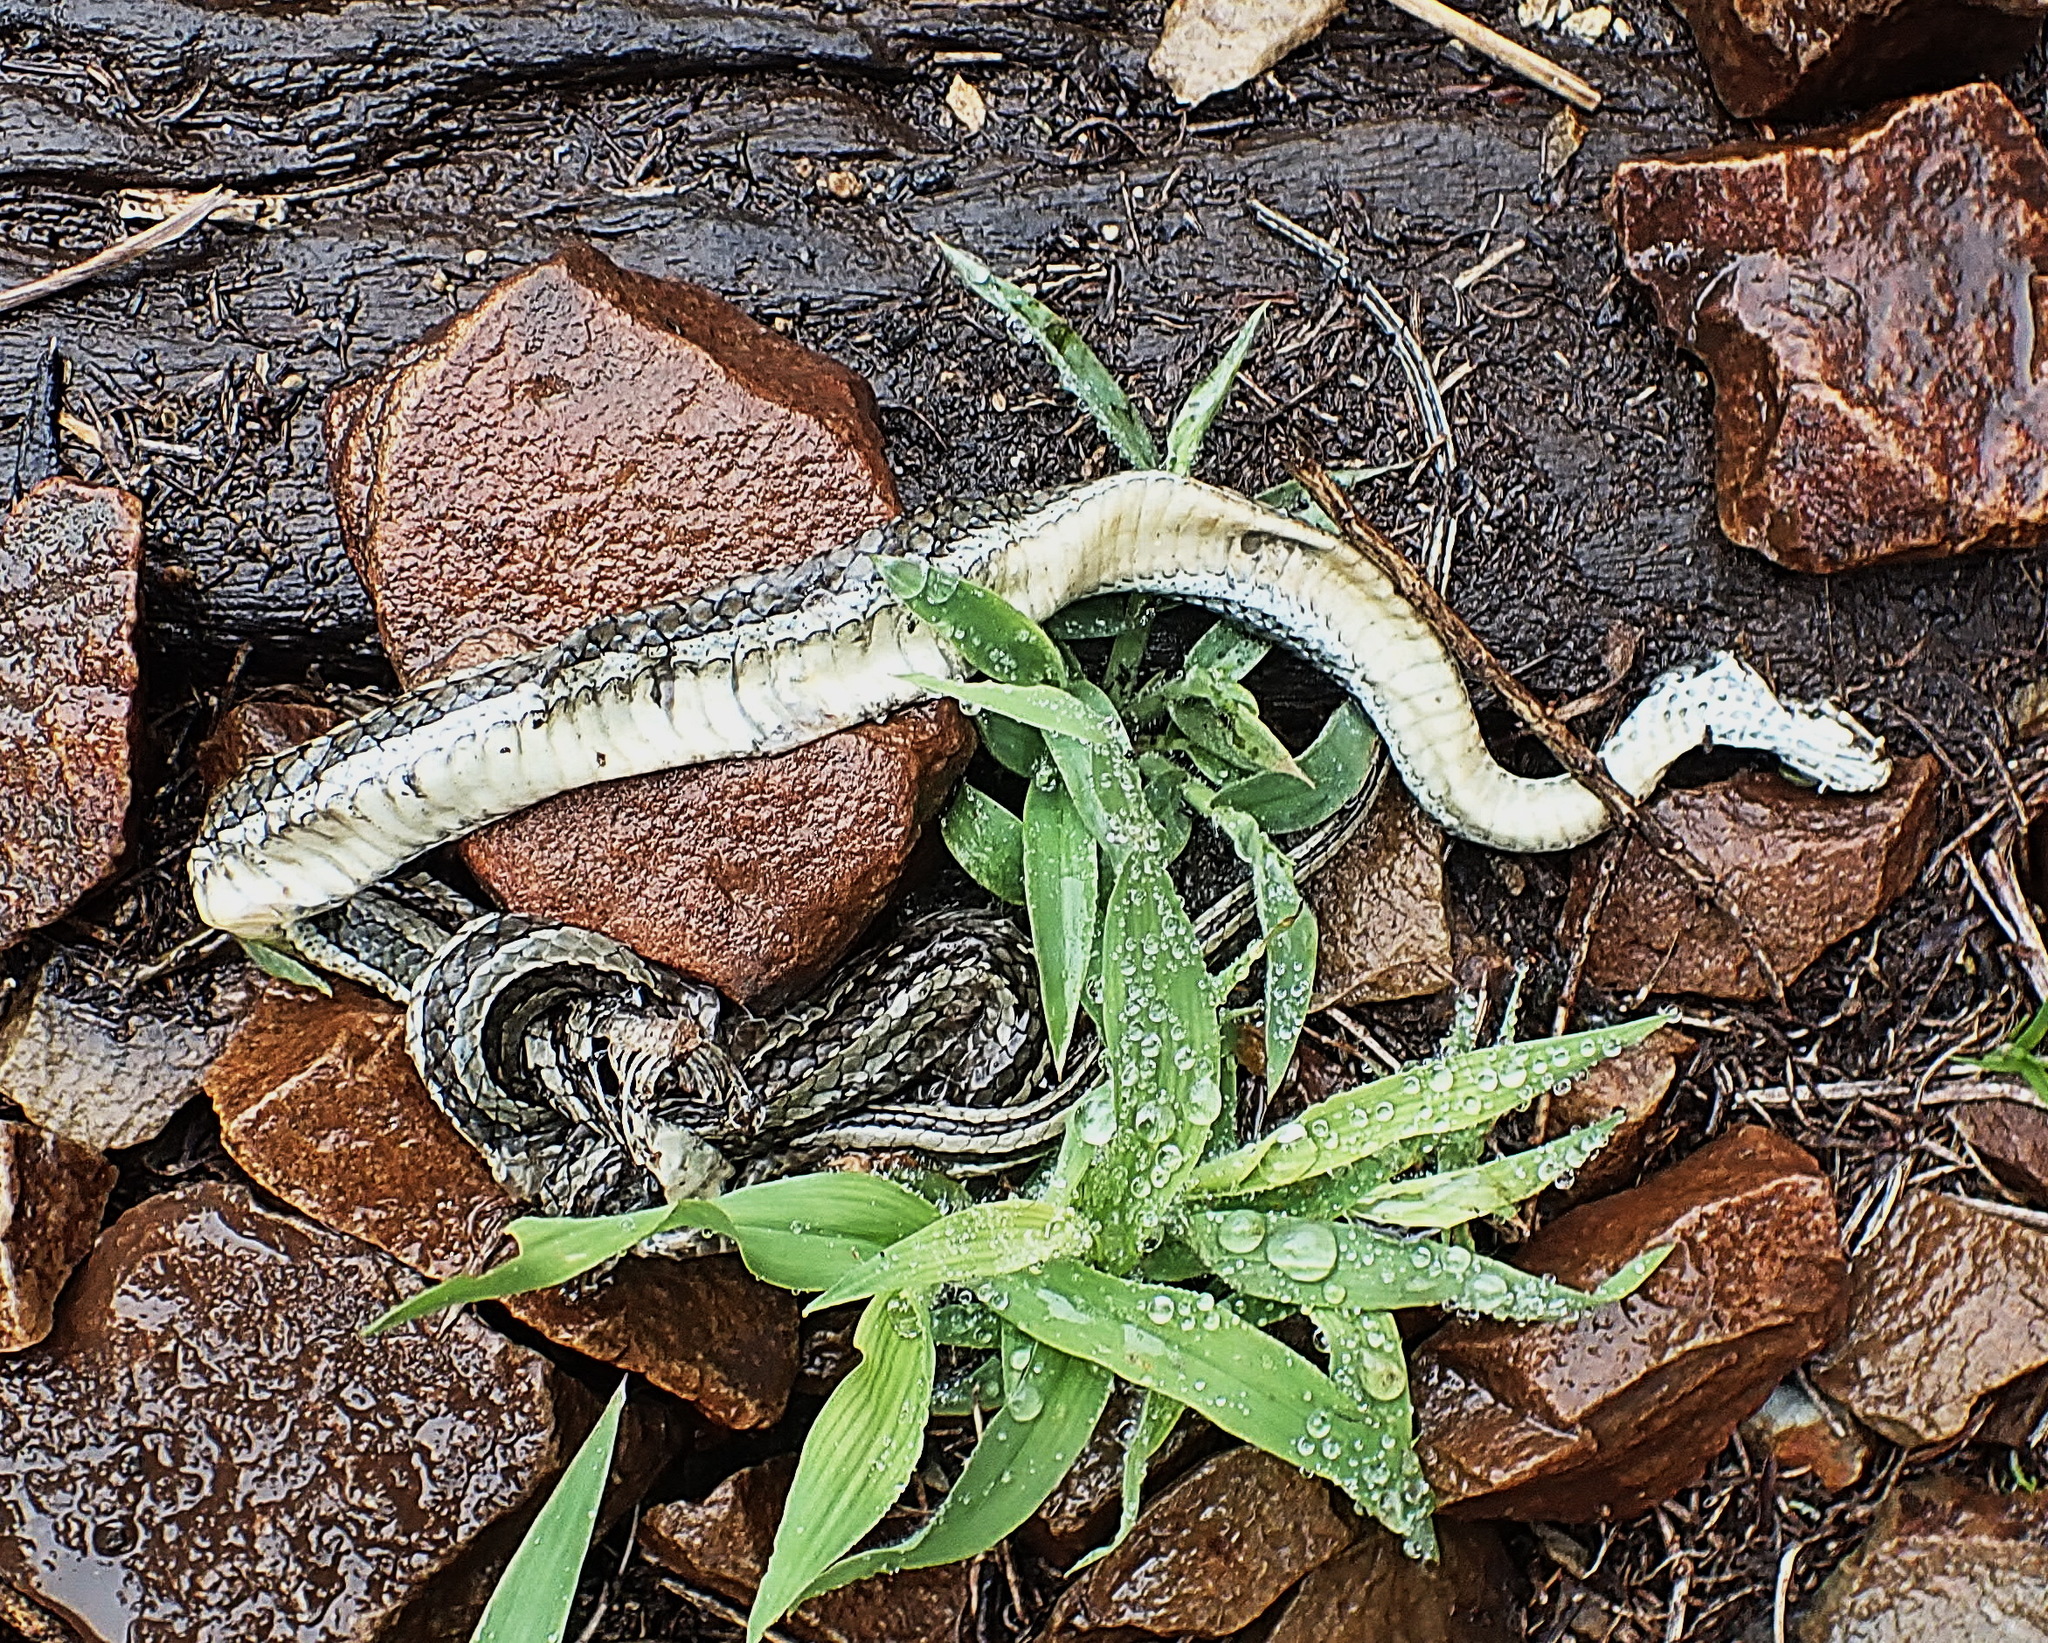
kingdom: Animalia
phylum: Chordata
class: Squamata
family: Psammophiidae
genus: Psammophis
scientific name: Psammophis crucifer
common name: Cross-marked grass snake
